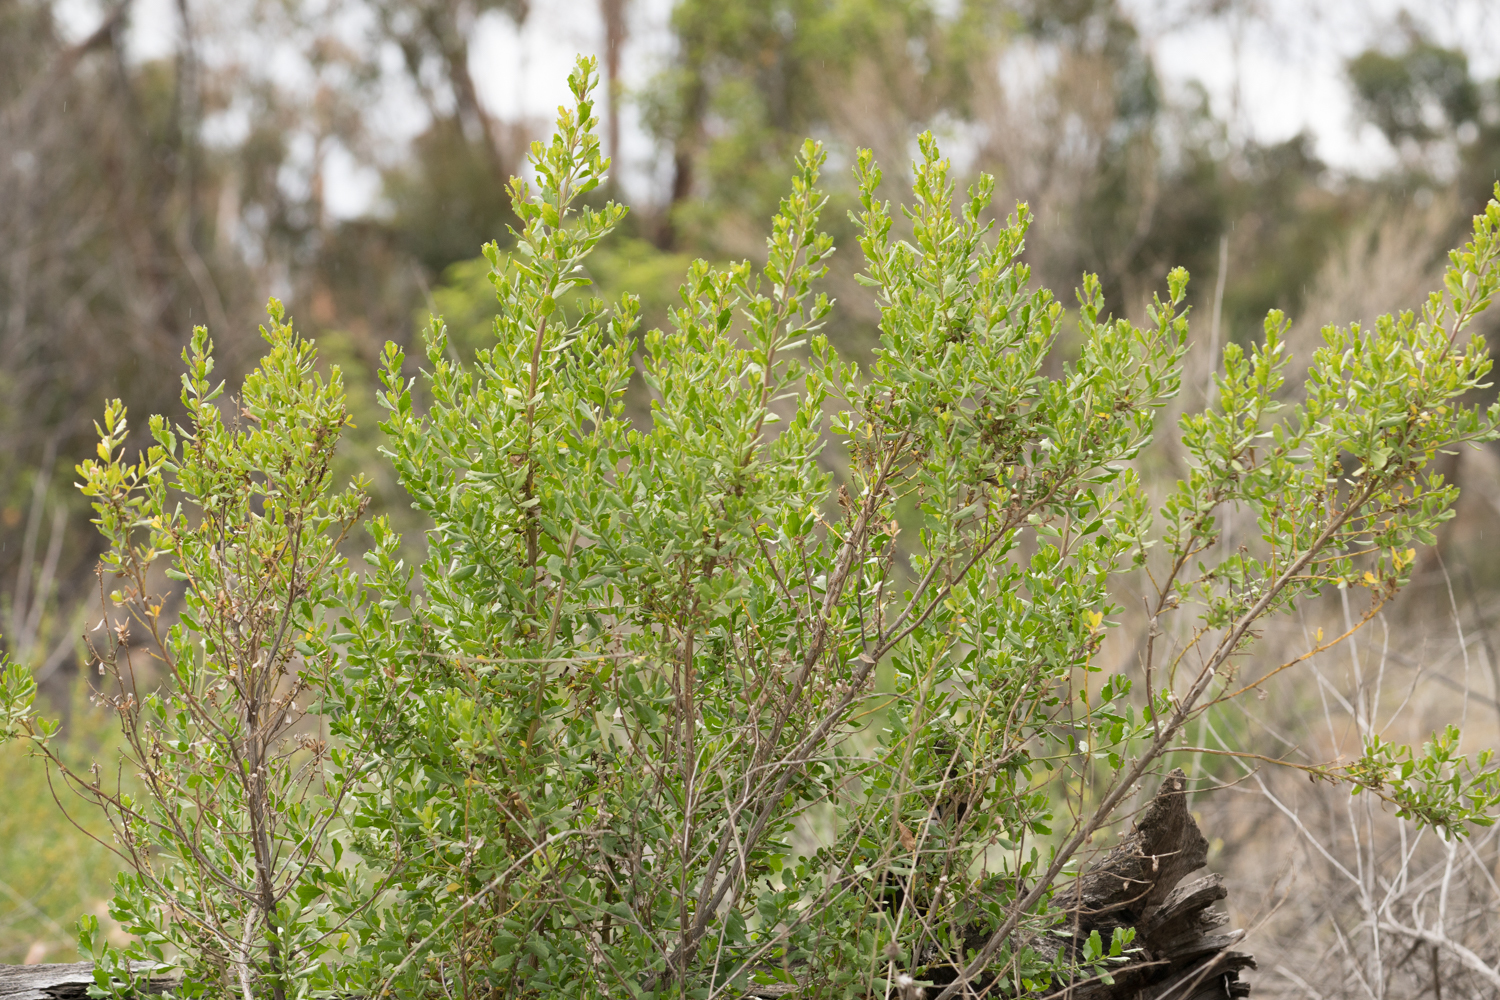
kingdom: Plantae
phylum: Tracheophyta
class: Magnoliopsida
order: Asterales
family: Asteraceae
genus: Baccharis
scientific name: Baccharis pilularis
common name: Coyotebrush
